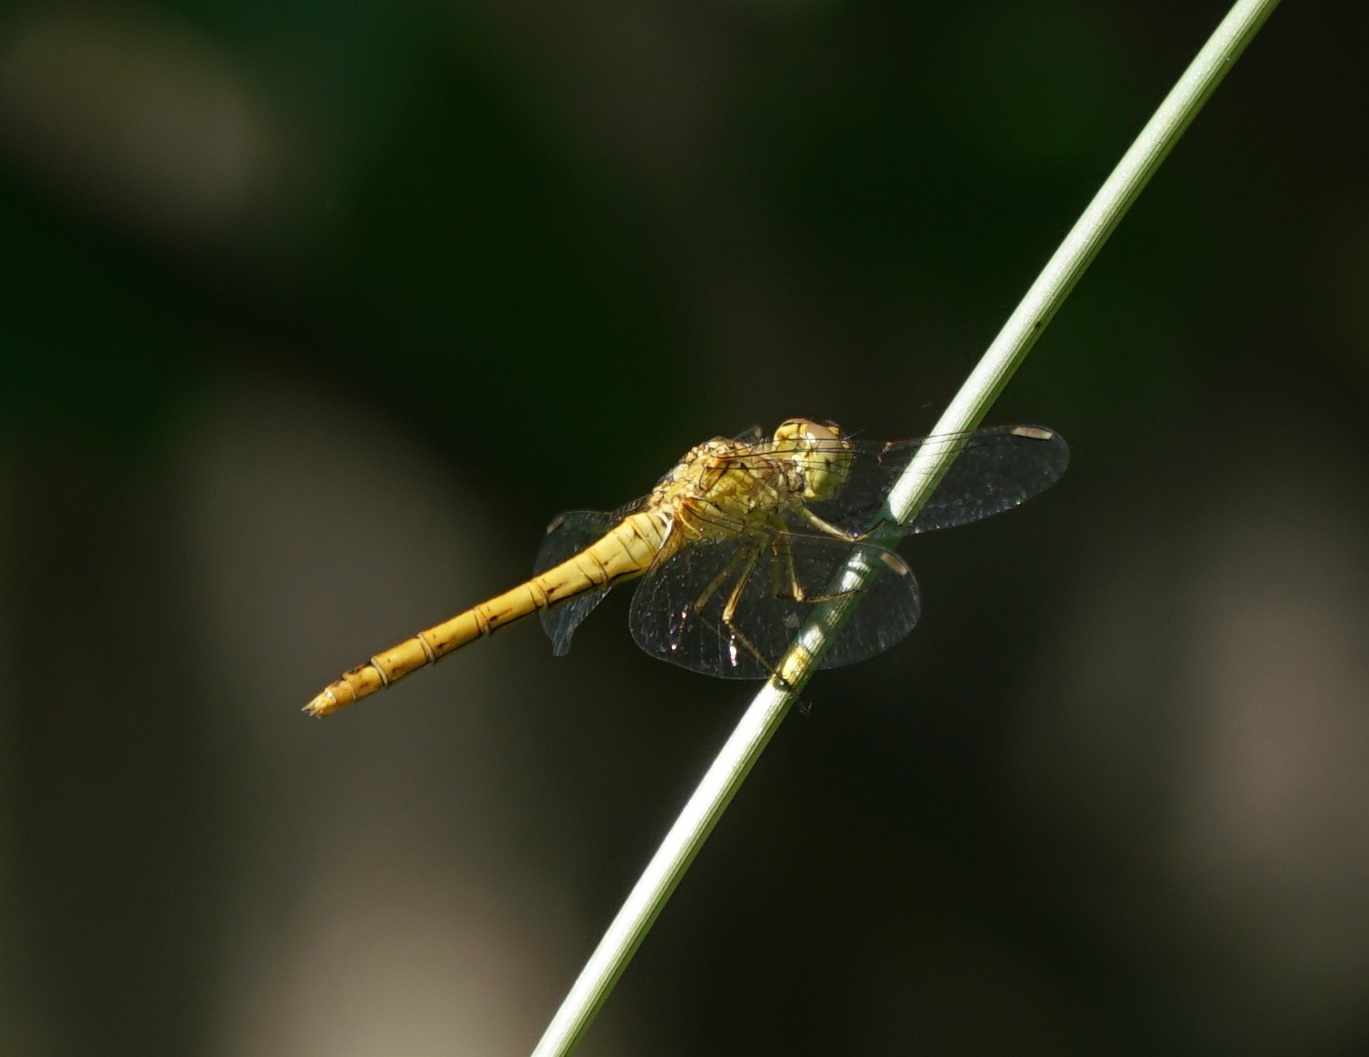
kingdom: Animalia
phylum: Arthropoda
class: Insecta
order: Odonata
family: Libellulidae
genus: Sympetrum
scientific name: Sympetrum meridionale
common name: Southern darter
